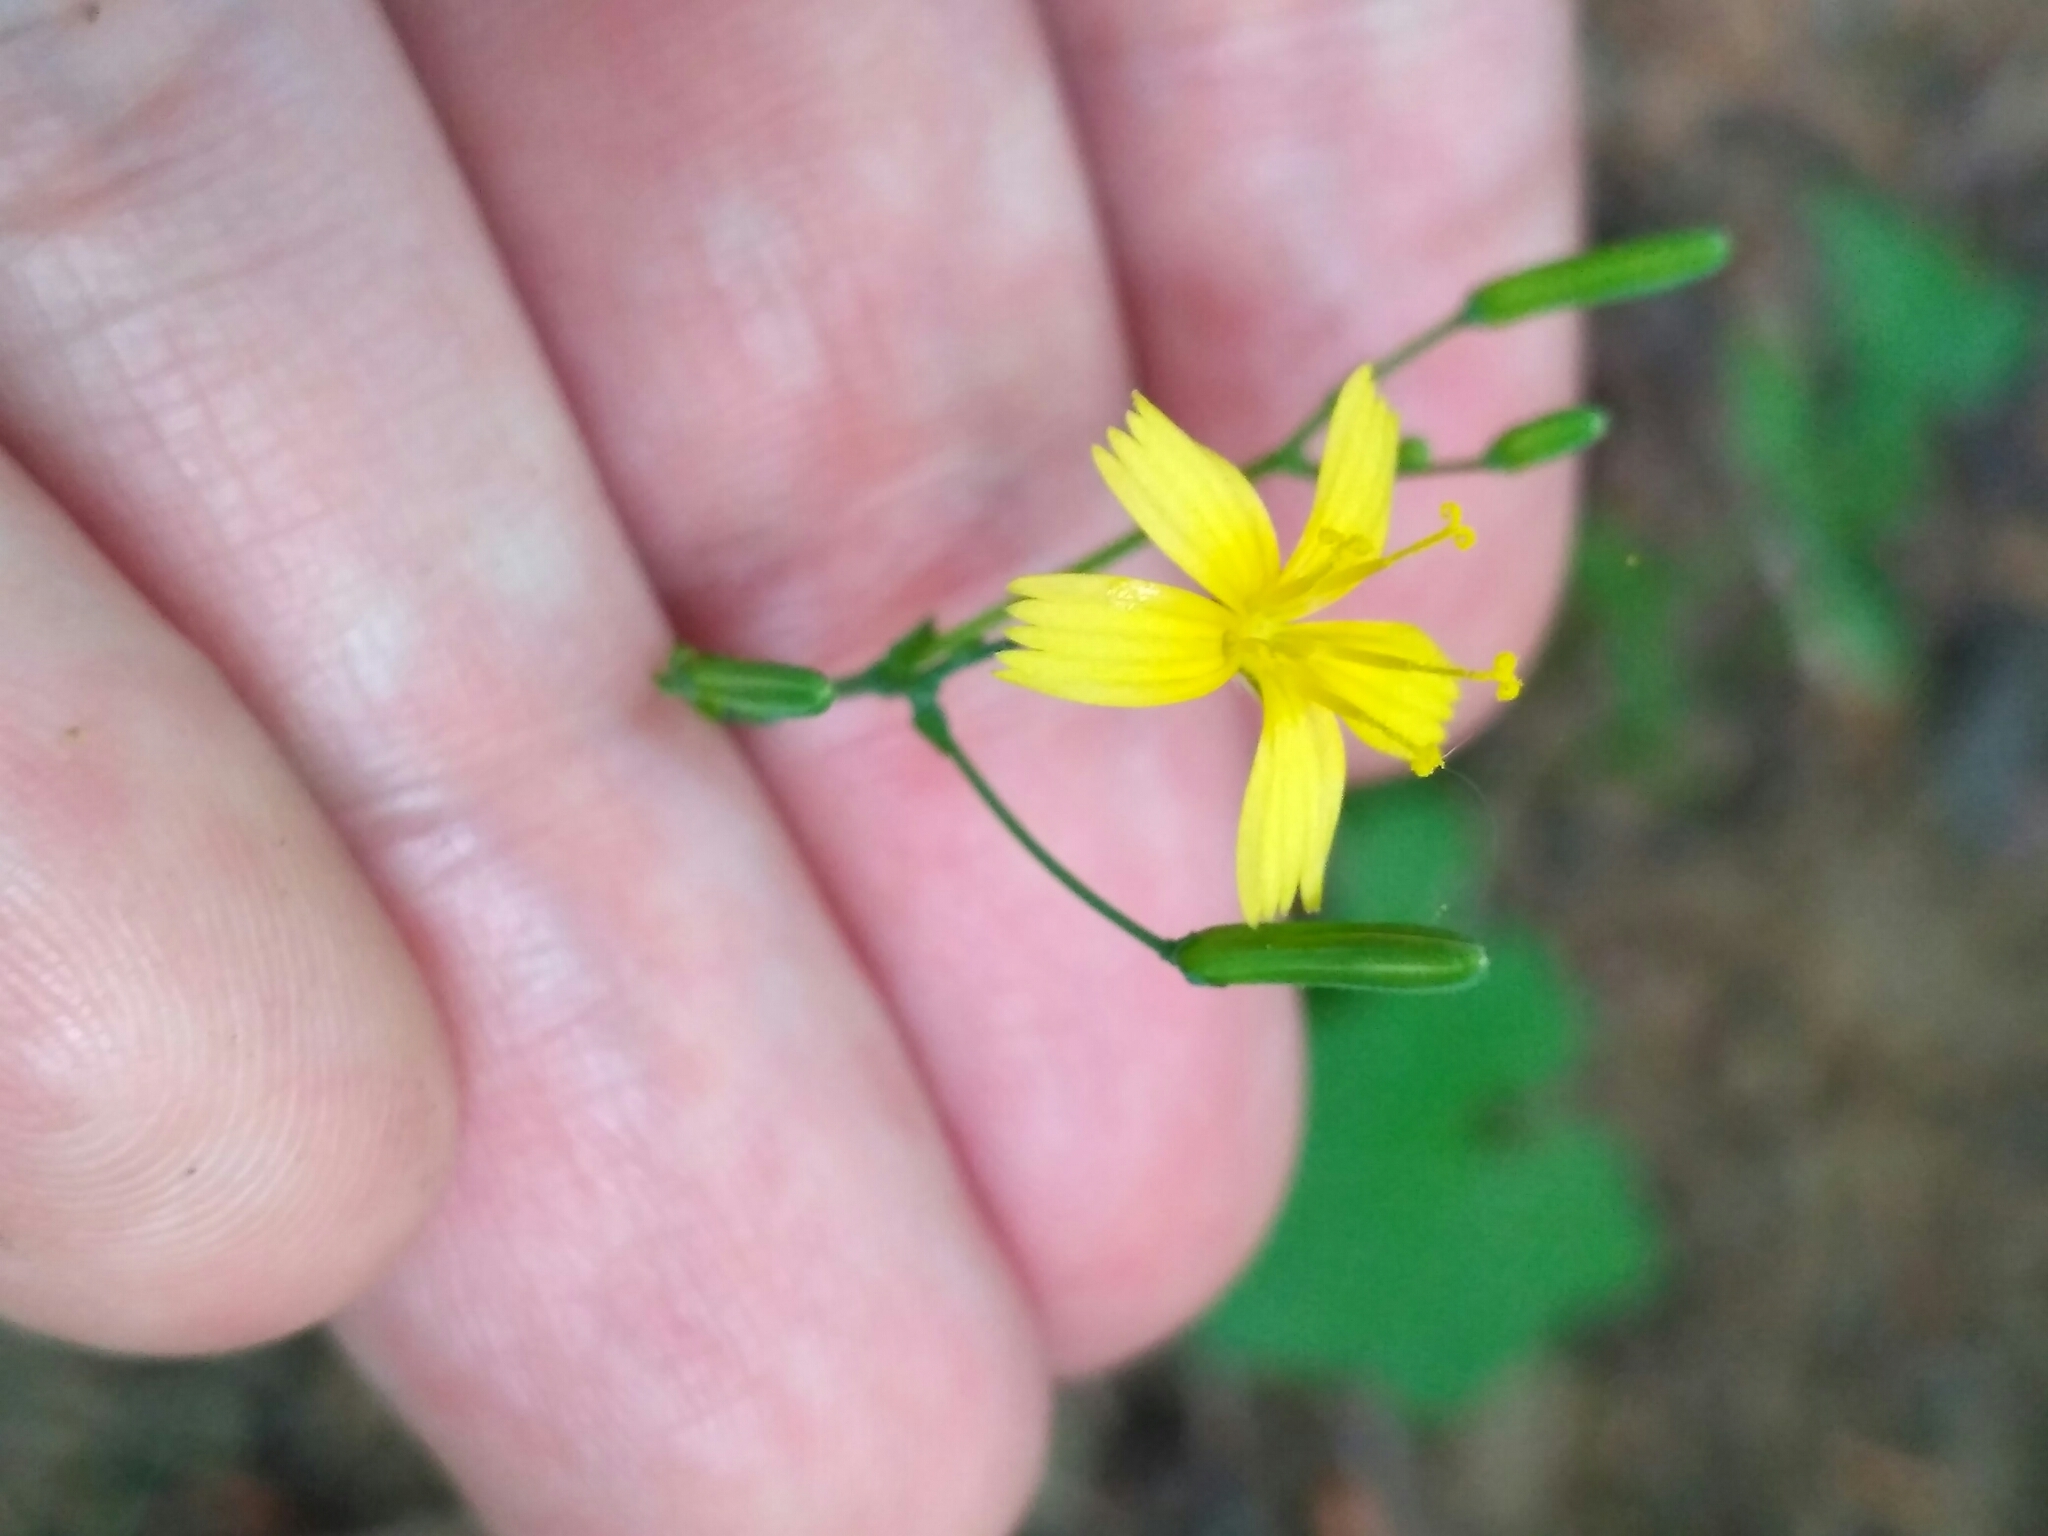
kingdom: Plantae
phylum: Tracheophyta
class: Magnoliopsida
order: Asterales
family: Asteraceae
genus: Mycelis
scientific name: Mycelis muralis
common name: Wall lettuce
